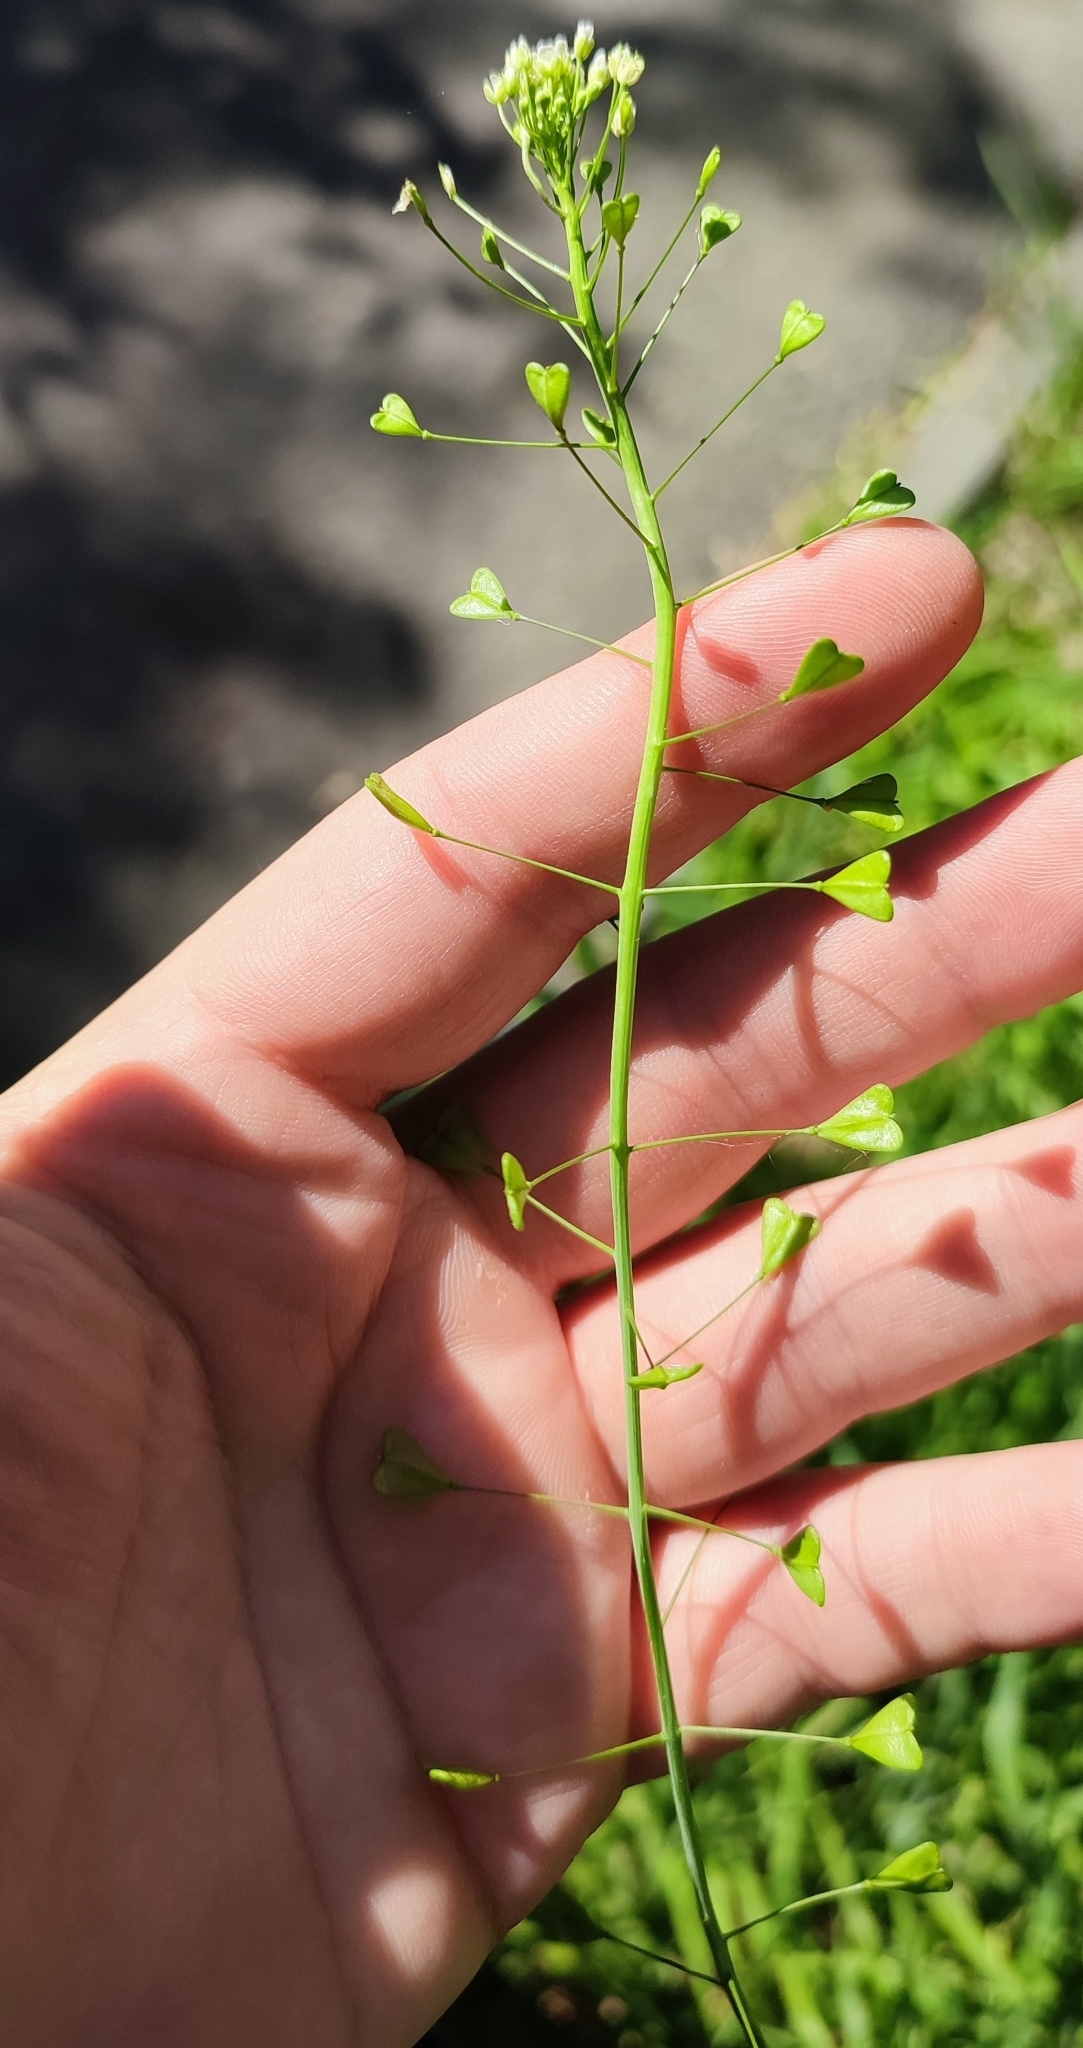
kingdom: Plantae
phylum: Tracheophyta
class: Magnoliopsida
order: Brassicales
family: Brassicaceae
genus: Capsella
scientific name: Capsella bursa-pastoris
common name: Shepherd's purse
